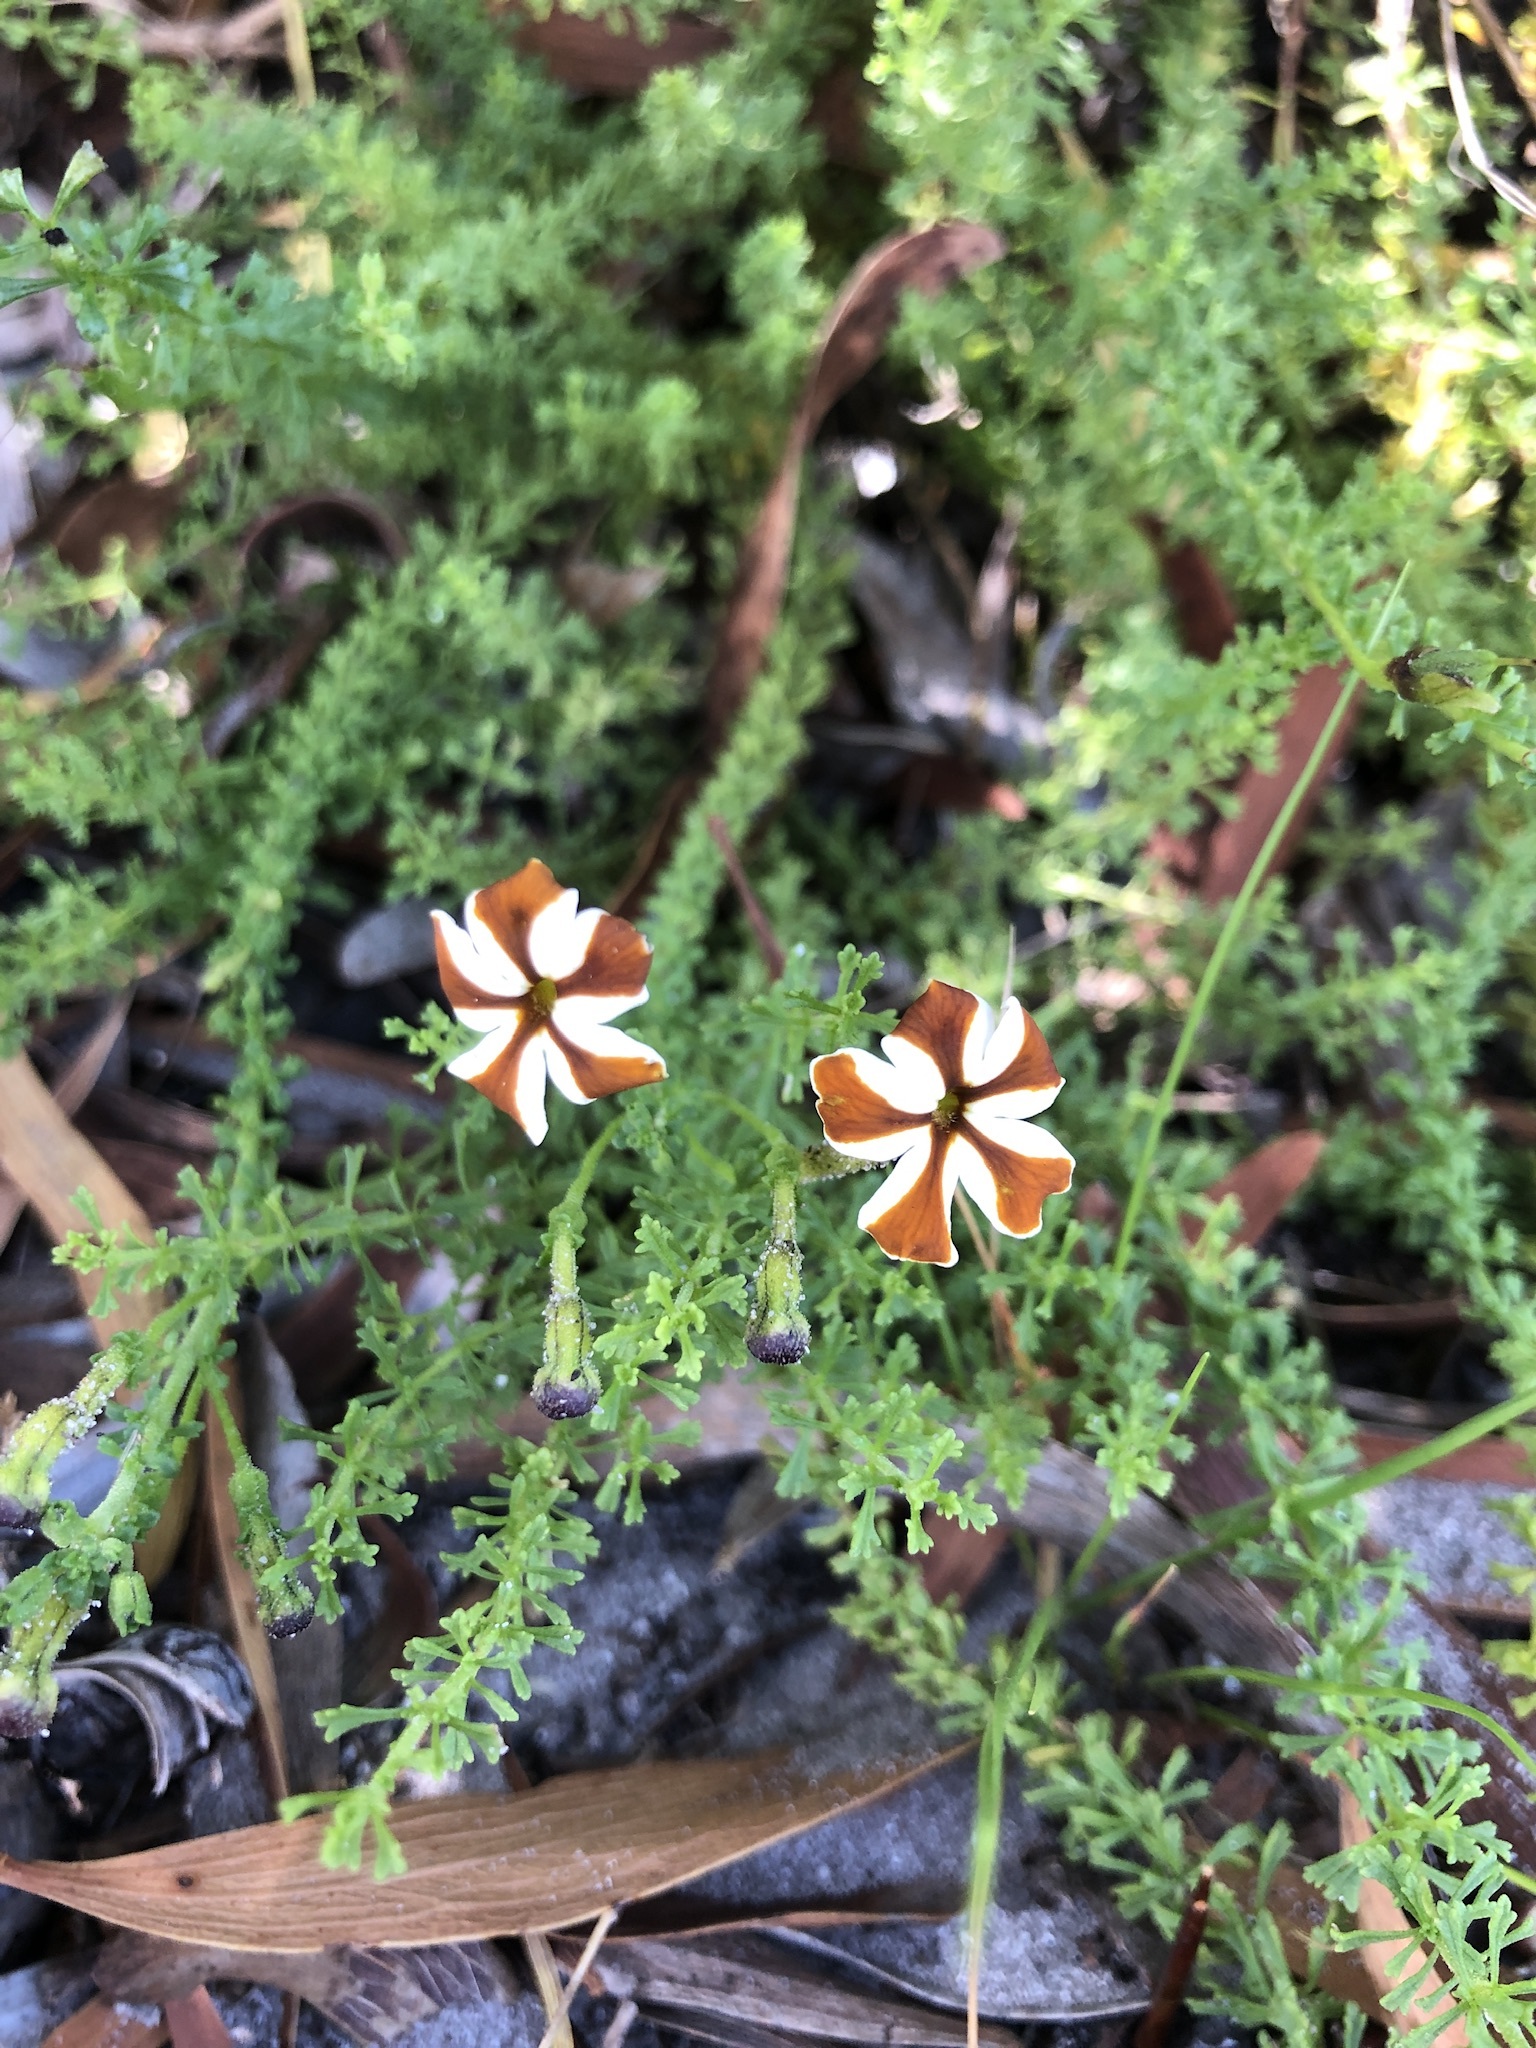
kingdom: Plantae
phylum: Tracheophyta
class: Magnoliopsida
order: Lamiales
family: Scrophulariaceae
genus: Jamesbrittenia
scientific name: Jamesbrittenia albomarginata
